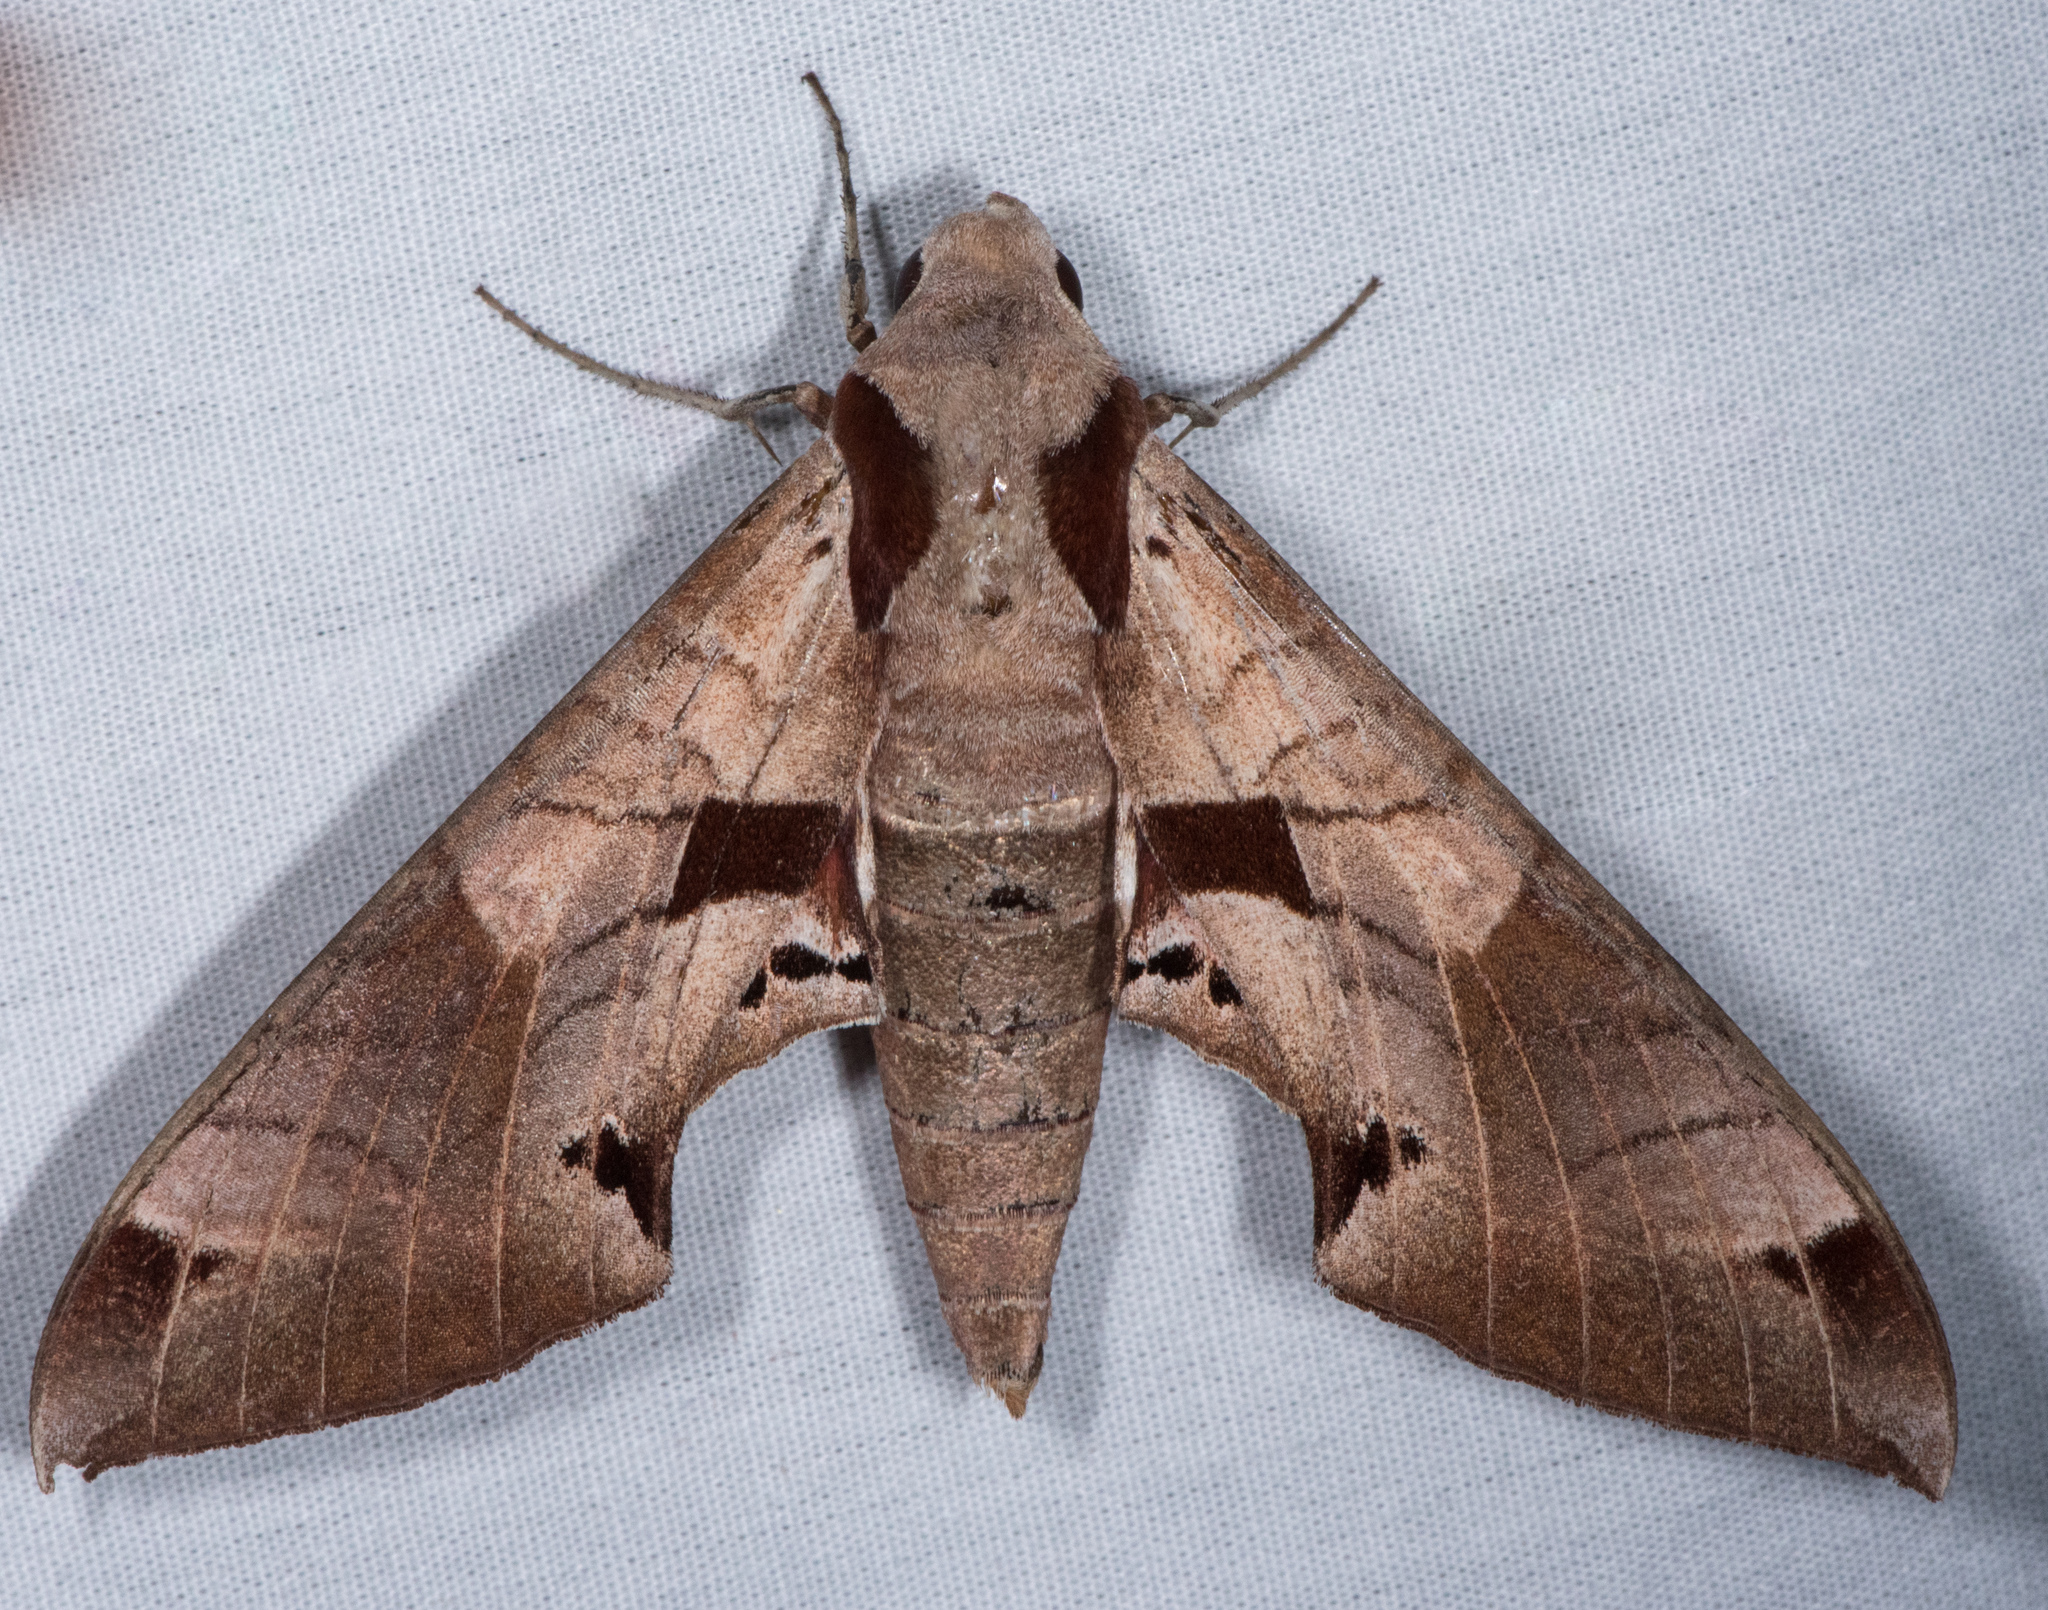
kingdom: Animalia
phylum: Arthropoda
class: Insecta
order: Lepidoptera
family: Sphingidae
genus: Eumorpha
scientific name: Eumorpha achemon
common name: Achemon sphinx
